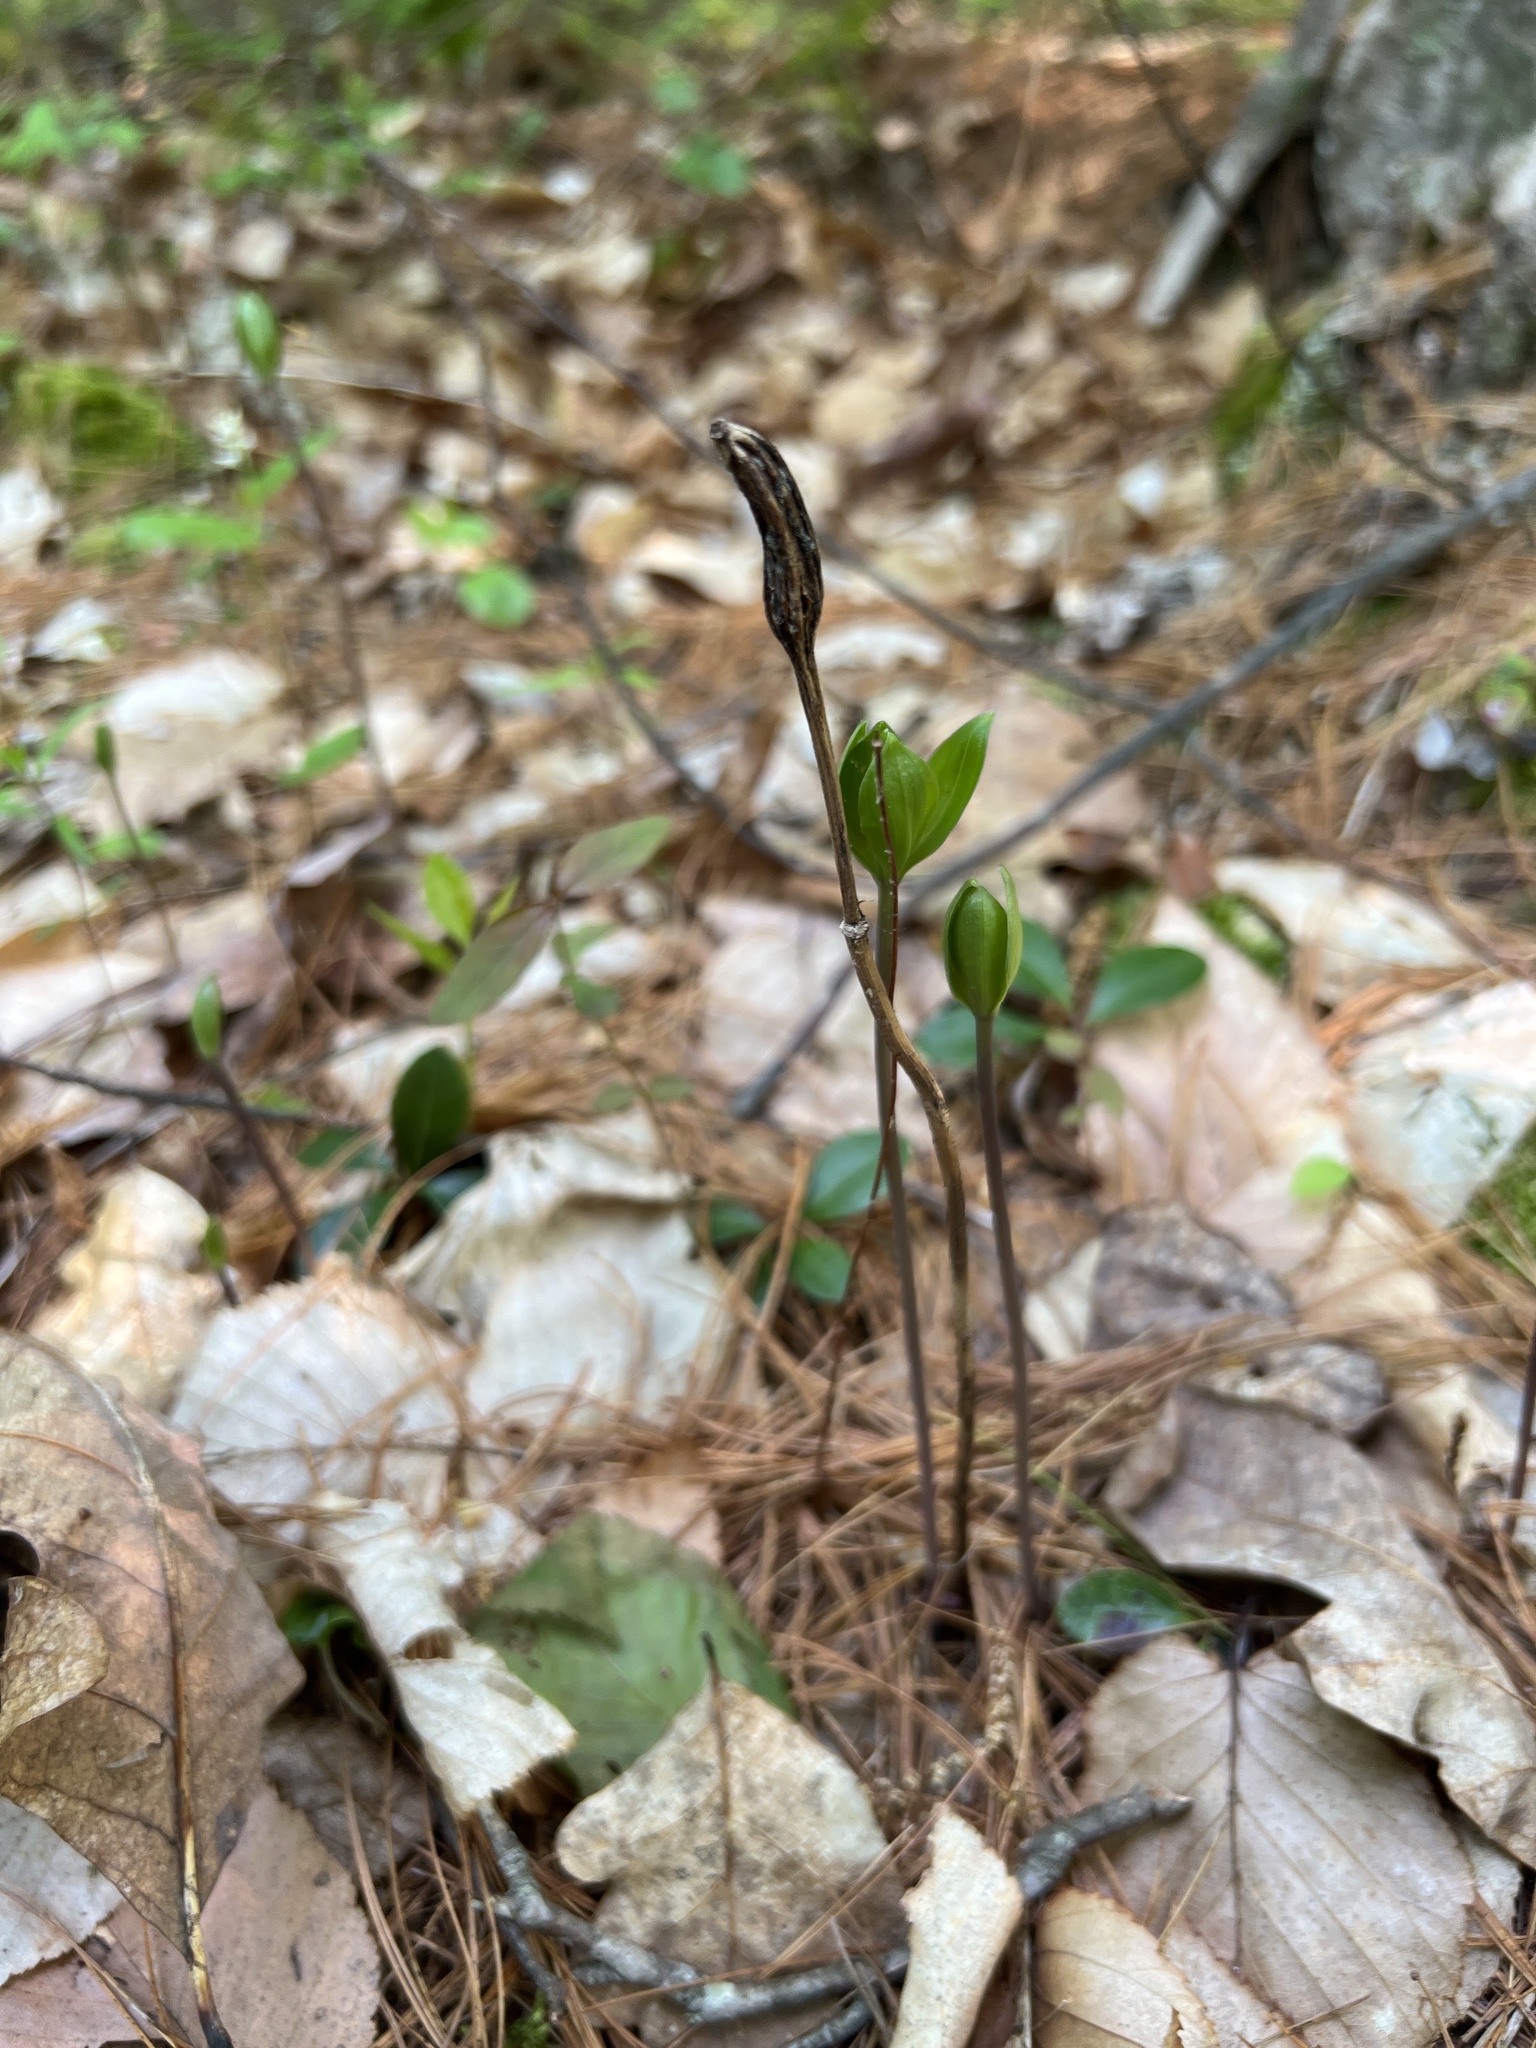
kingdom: Plantae
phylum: Tracheophyta
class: Liliopsida
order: Asparagales
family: Orchidaceae
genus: Isotria
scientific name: Isotria verticillata
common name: Large whorled pogonia
